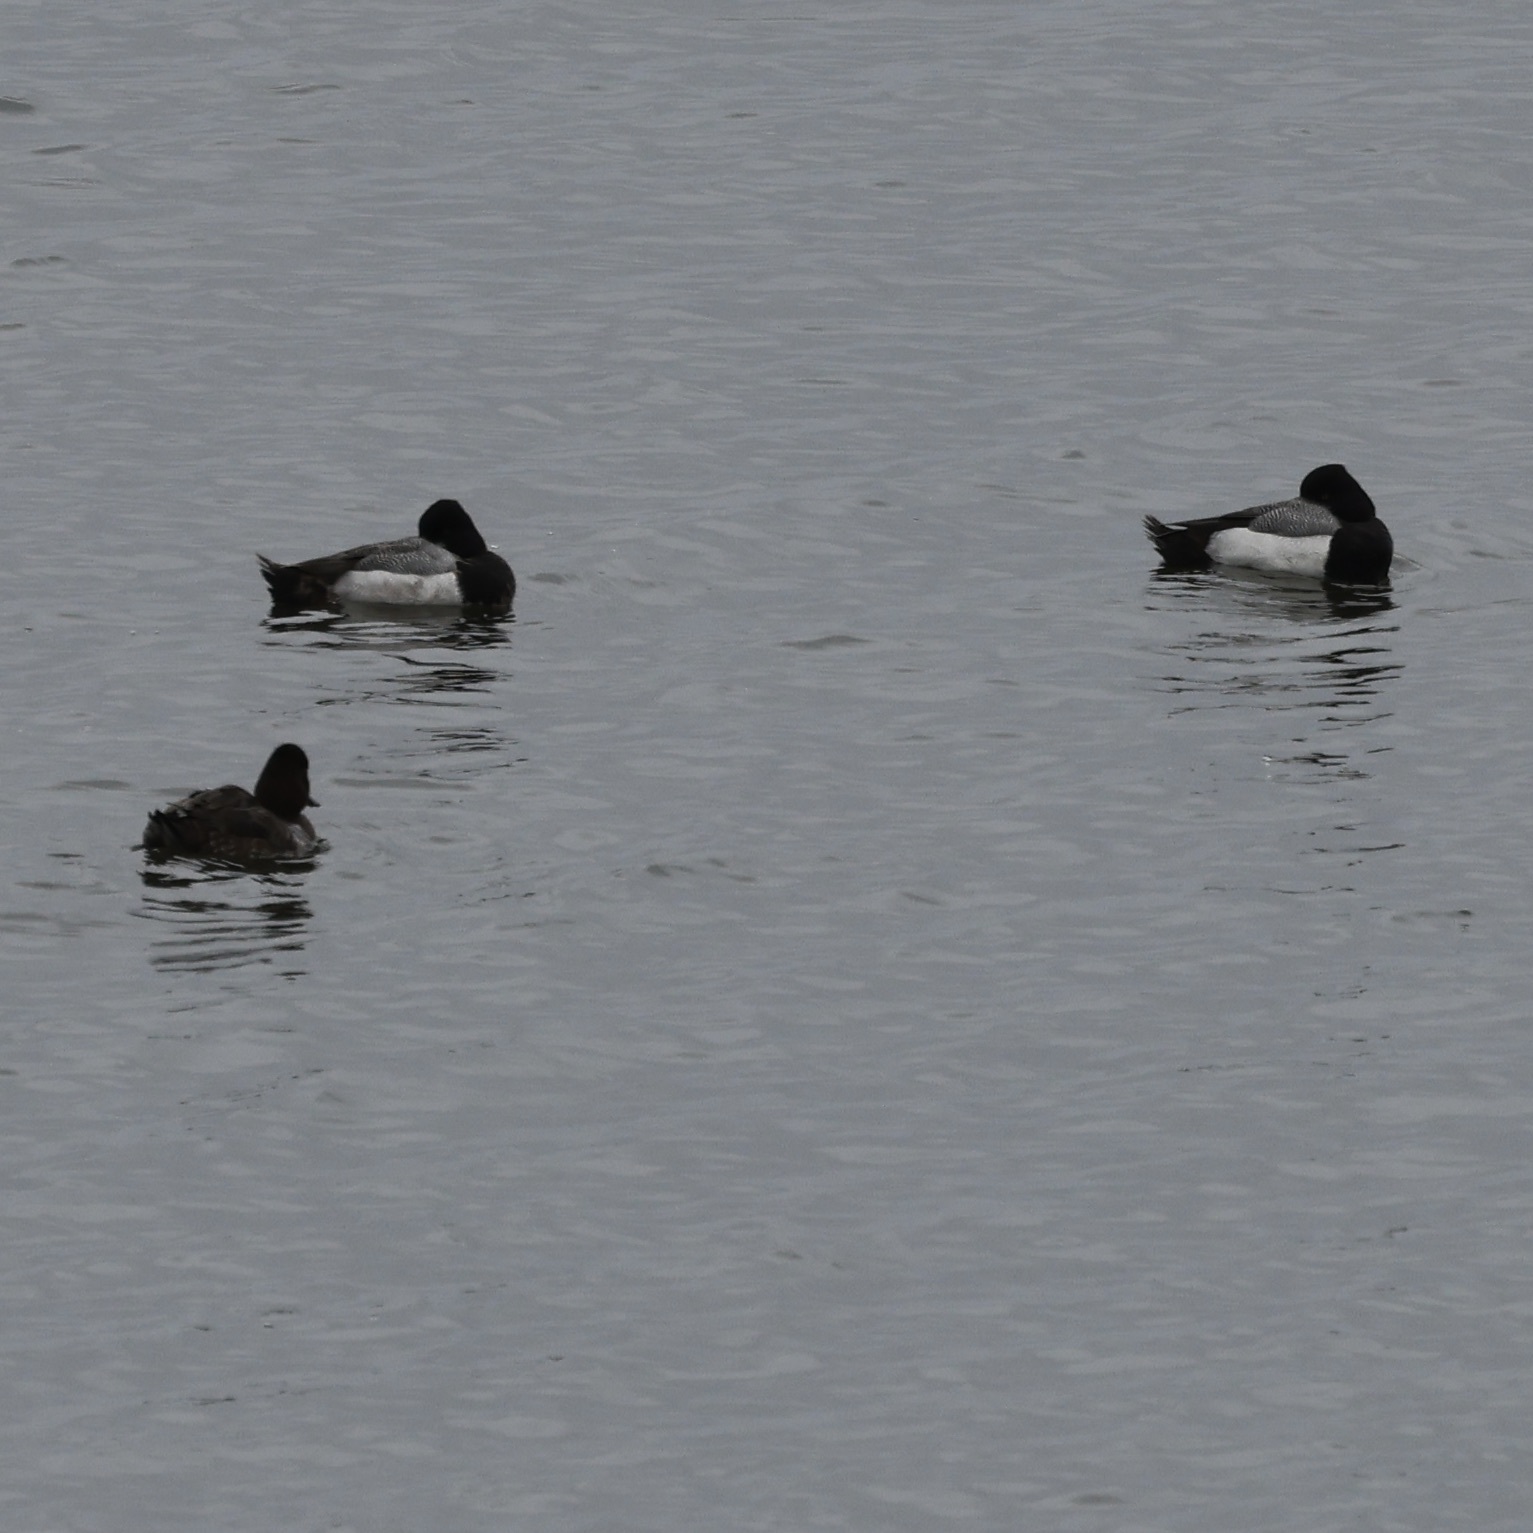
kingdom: Animalia
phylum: Chordata
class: Aves
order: Anseriformes
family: Anatidae
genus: Aythya
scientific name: Aythya affinis
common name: Lesser scaup
